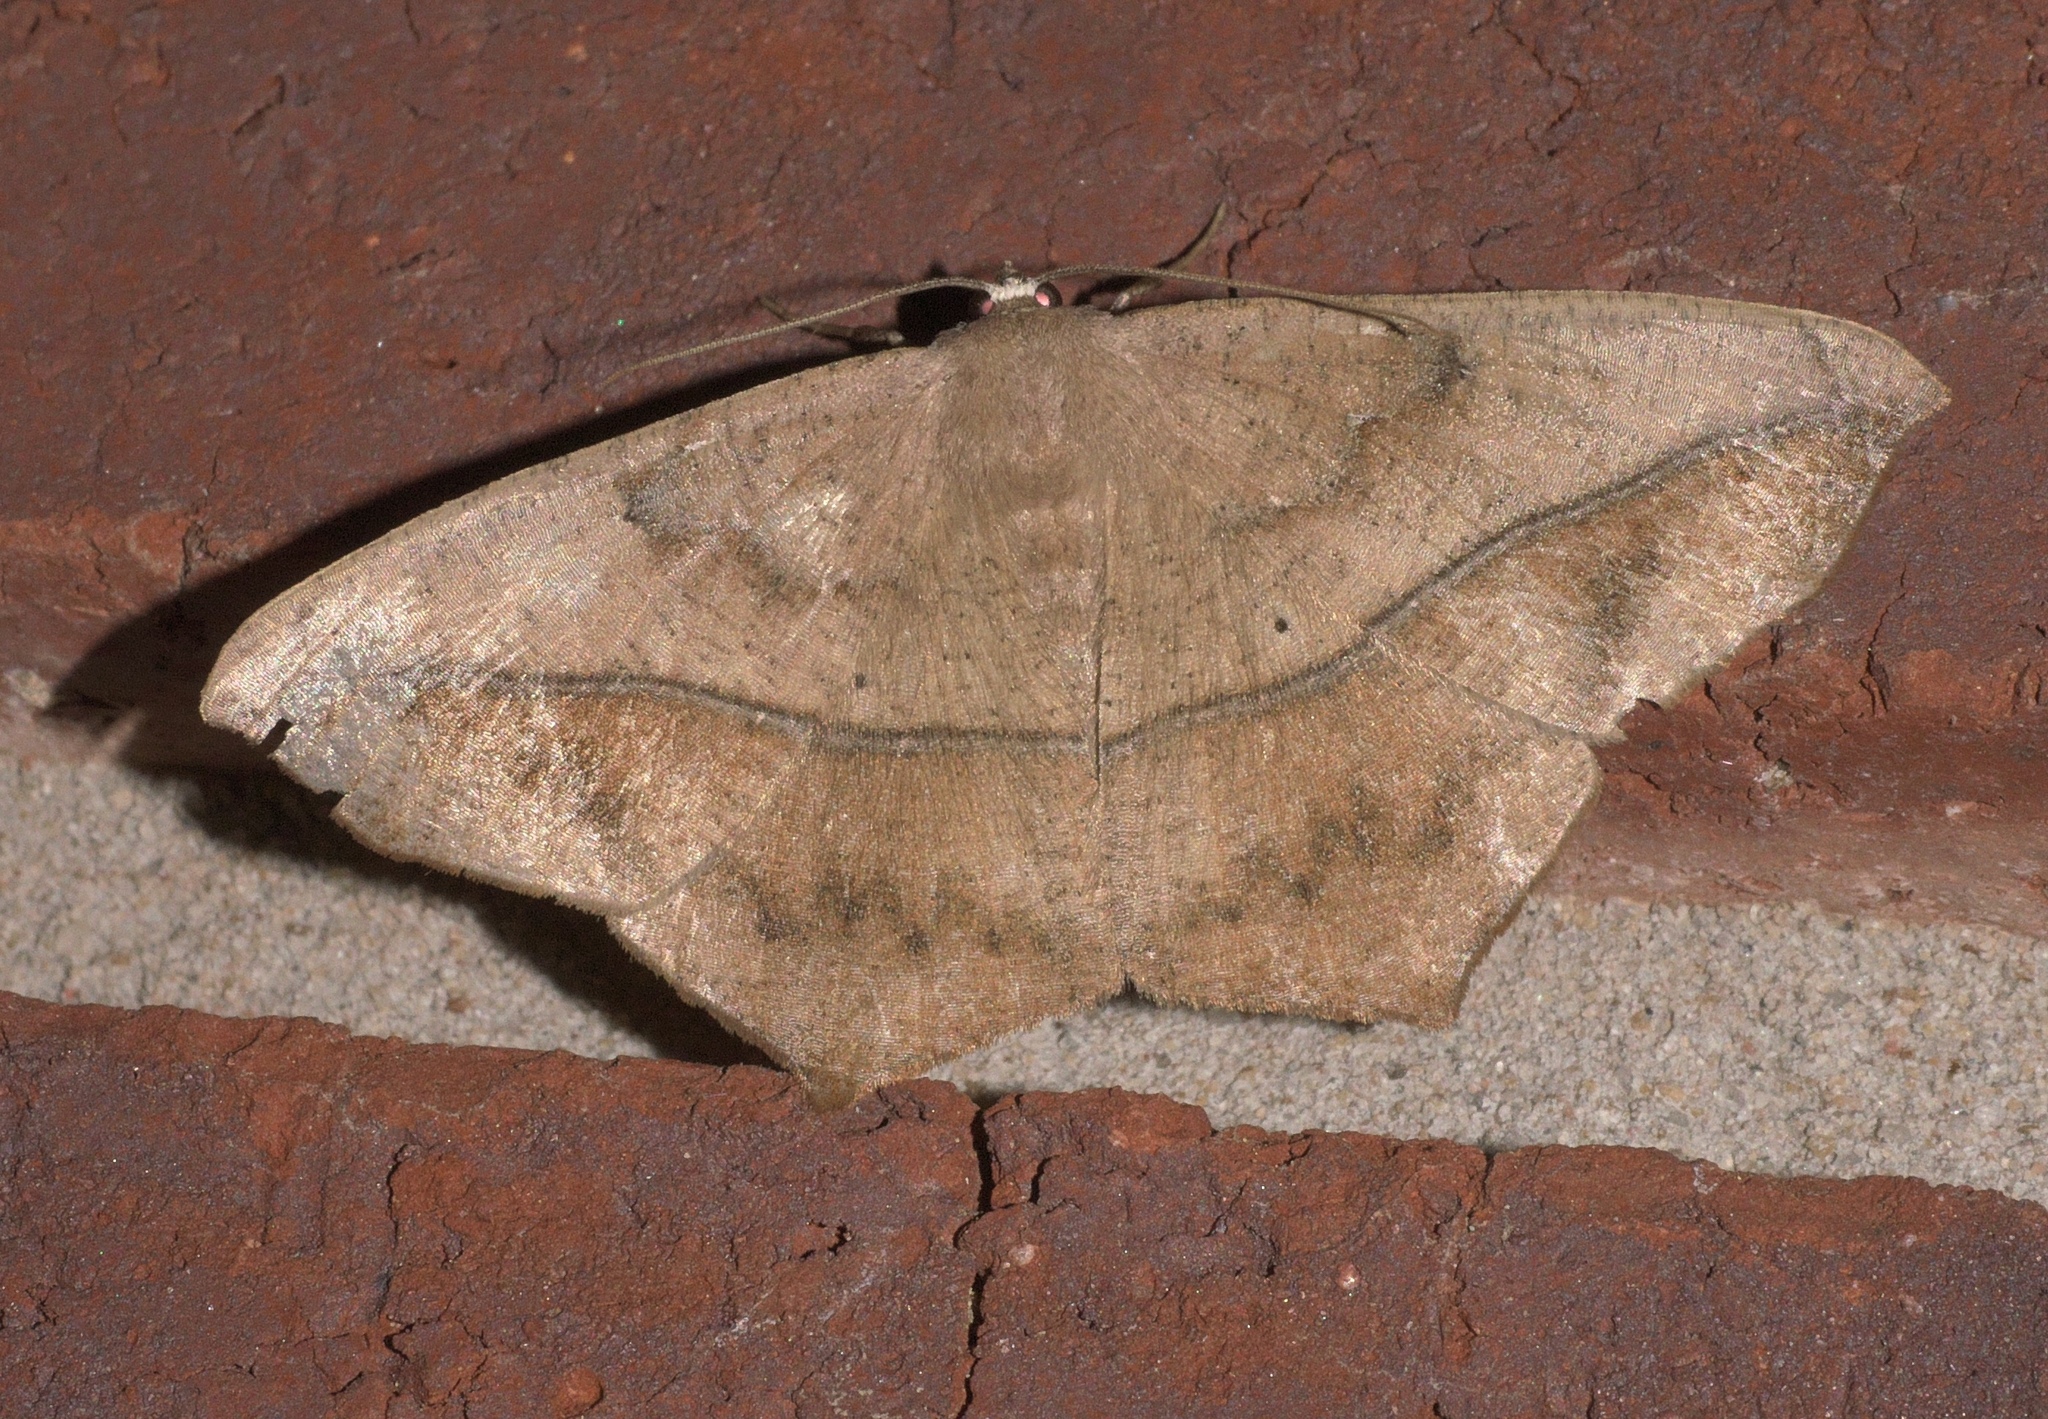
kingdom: Animalia
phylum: Arthropoda
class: Insecta
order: Lepidoptera
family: Geometridae
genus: Prochoerodes
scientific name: Prochoerodes lineola
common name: Large maple spanworm
